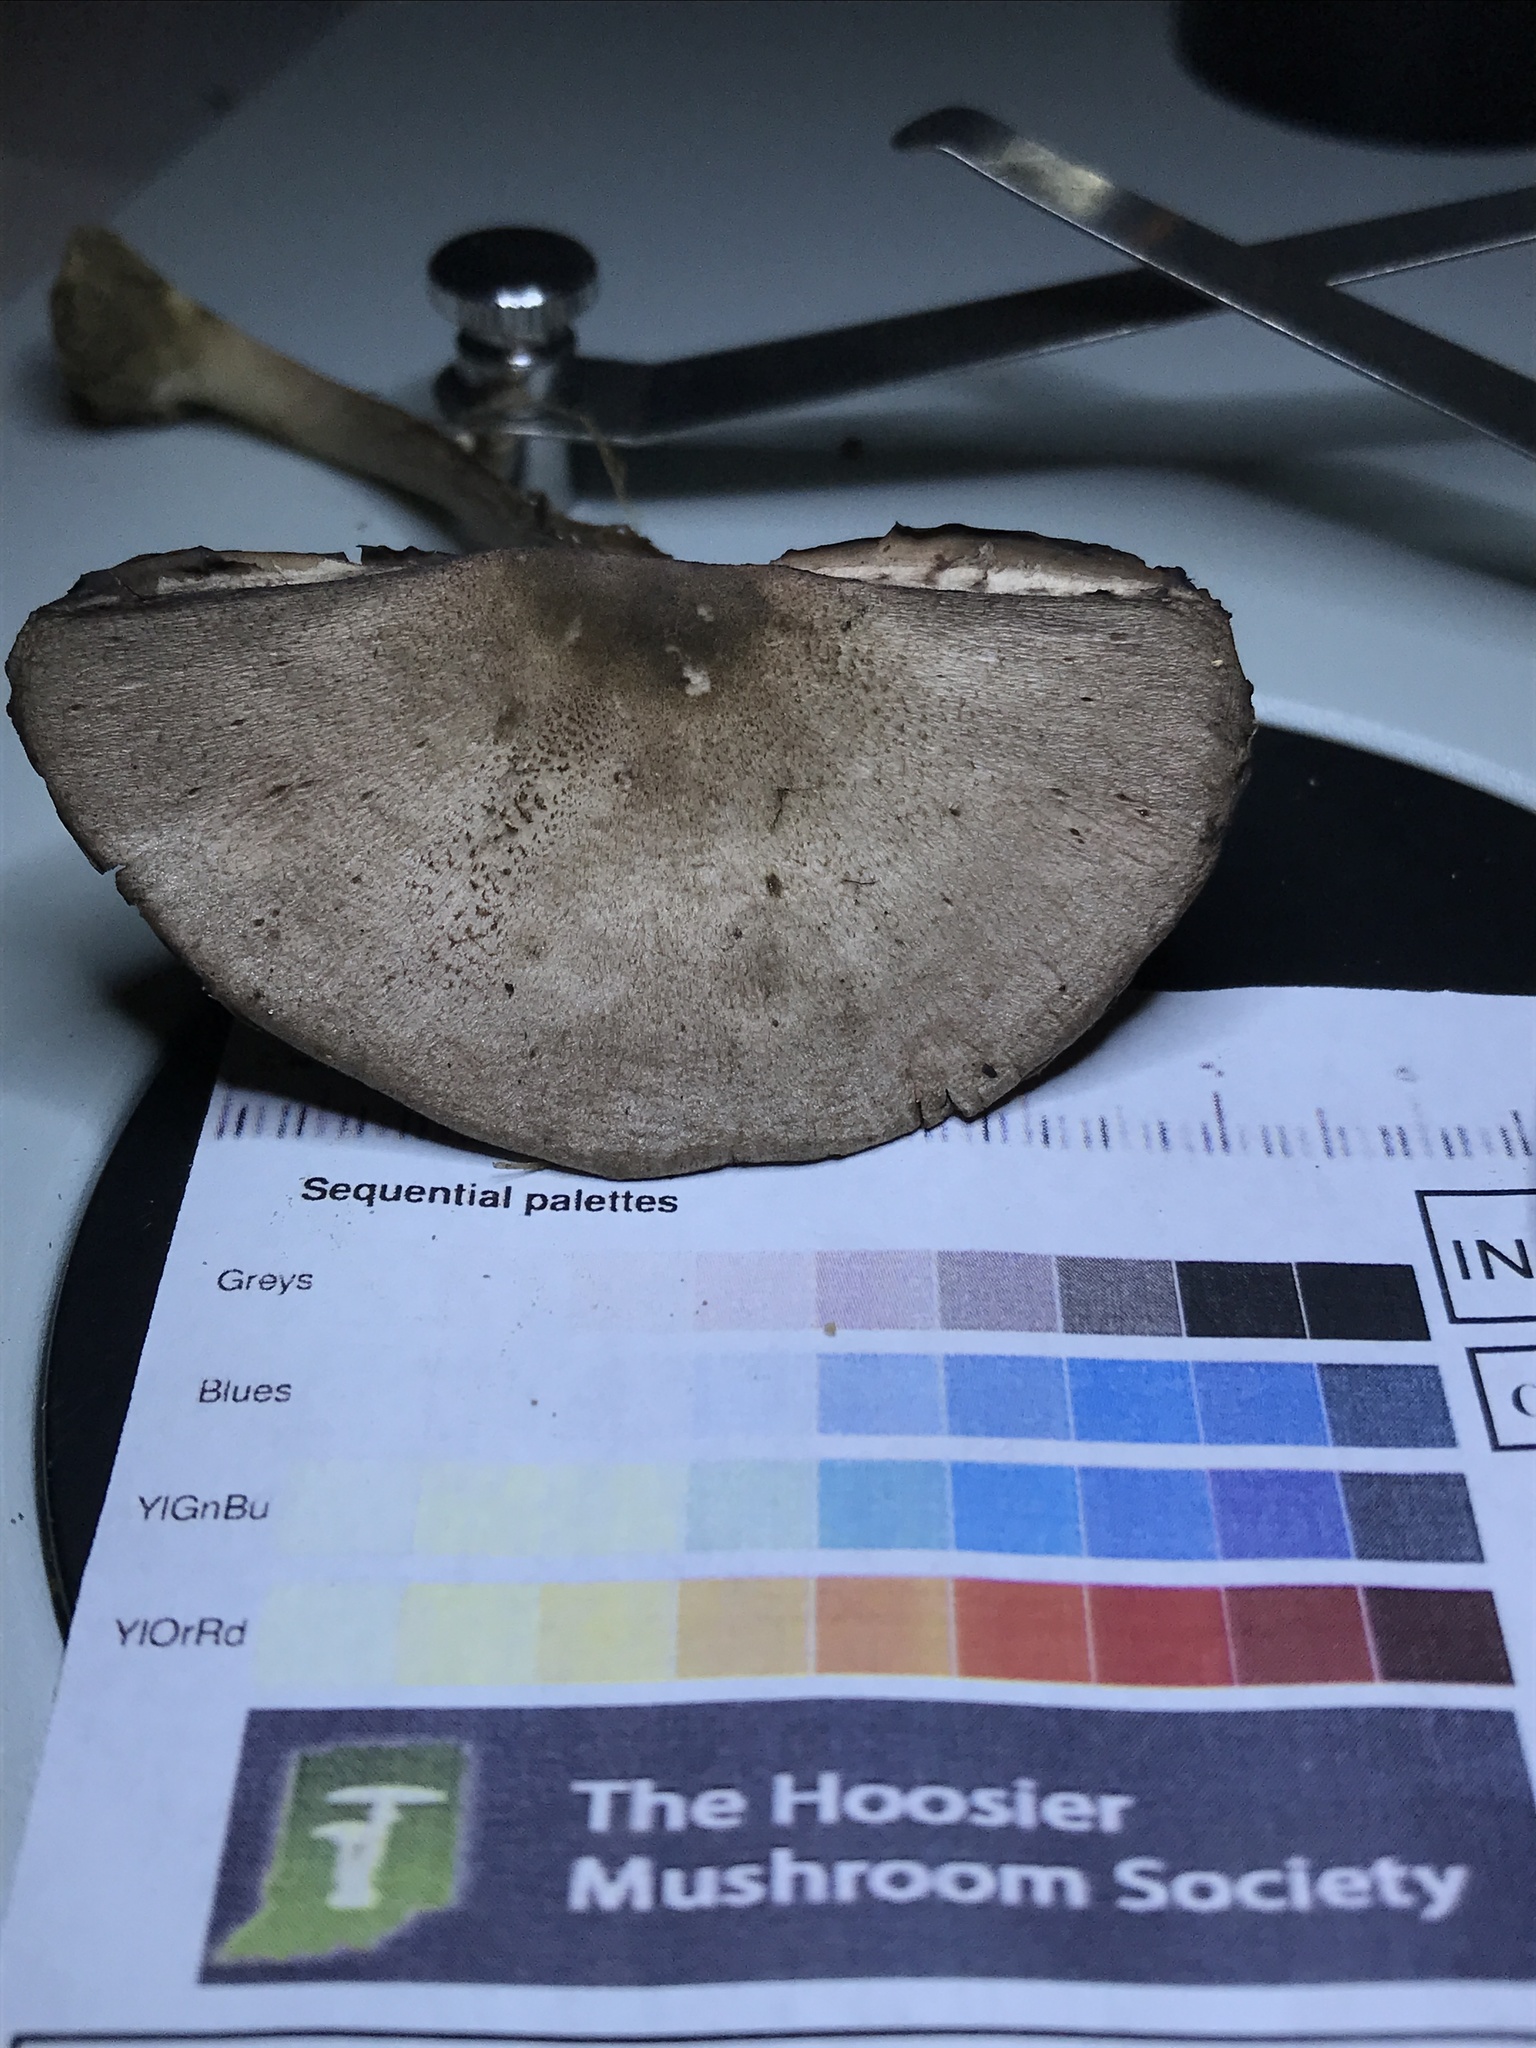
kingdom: Fungi
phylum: Basidiomycota
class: Agaricomycetes
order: Agaricales
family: Agaricaceae
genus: Agaricus
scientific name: Agaricus leptocaulis
